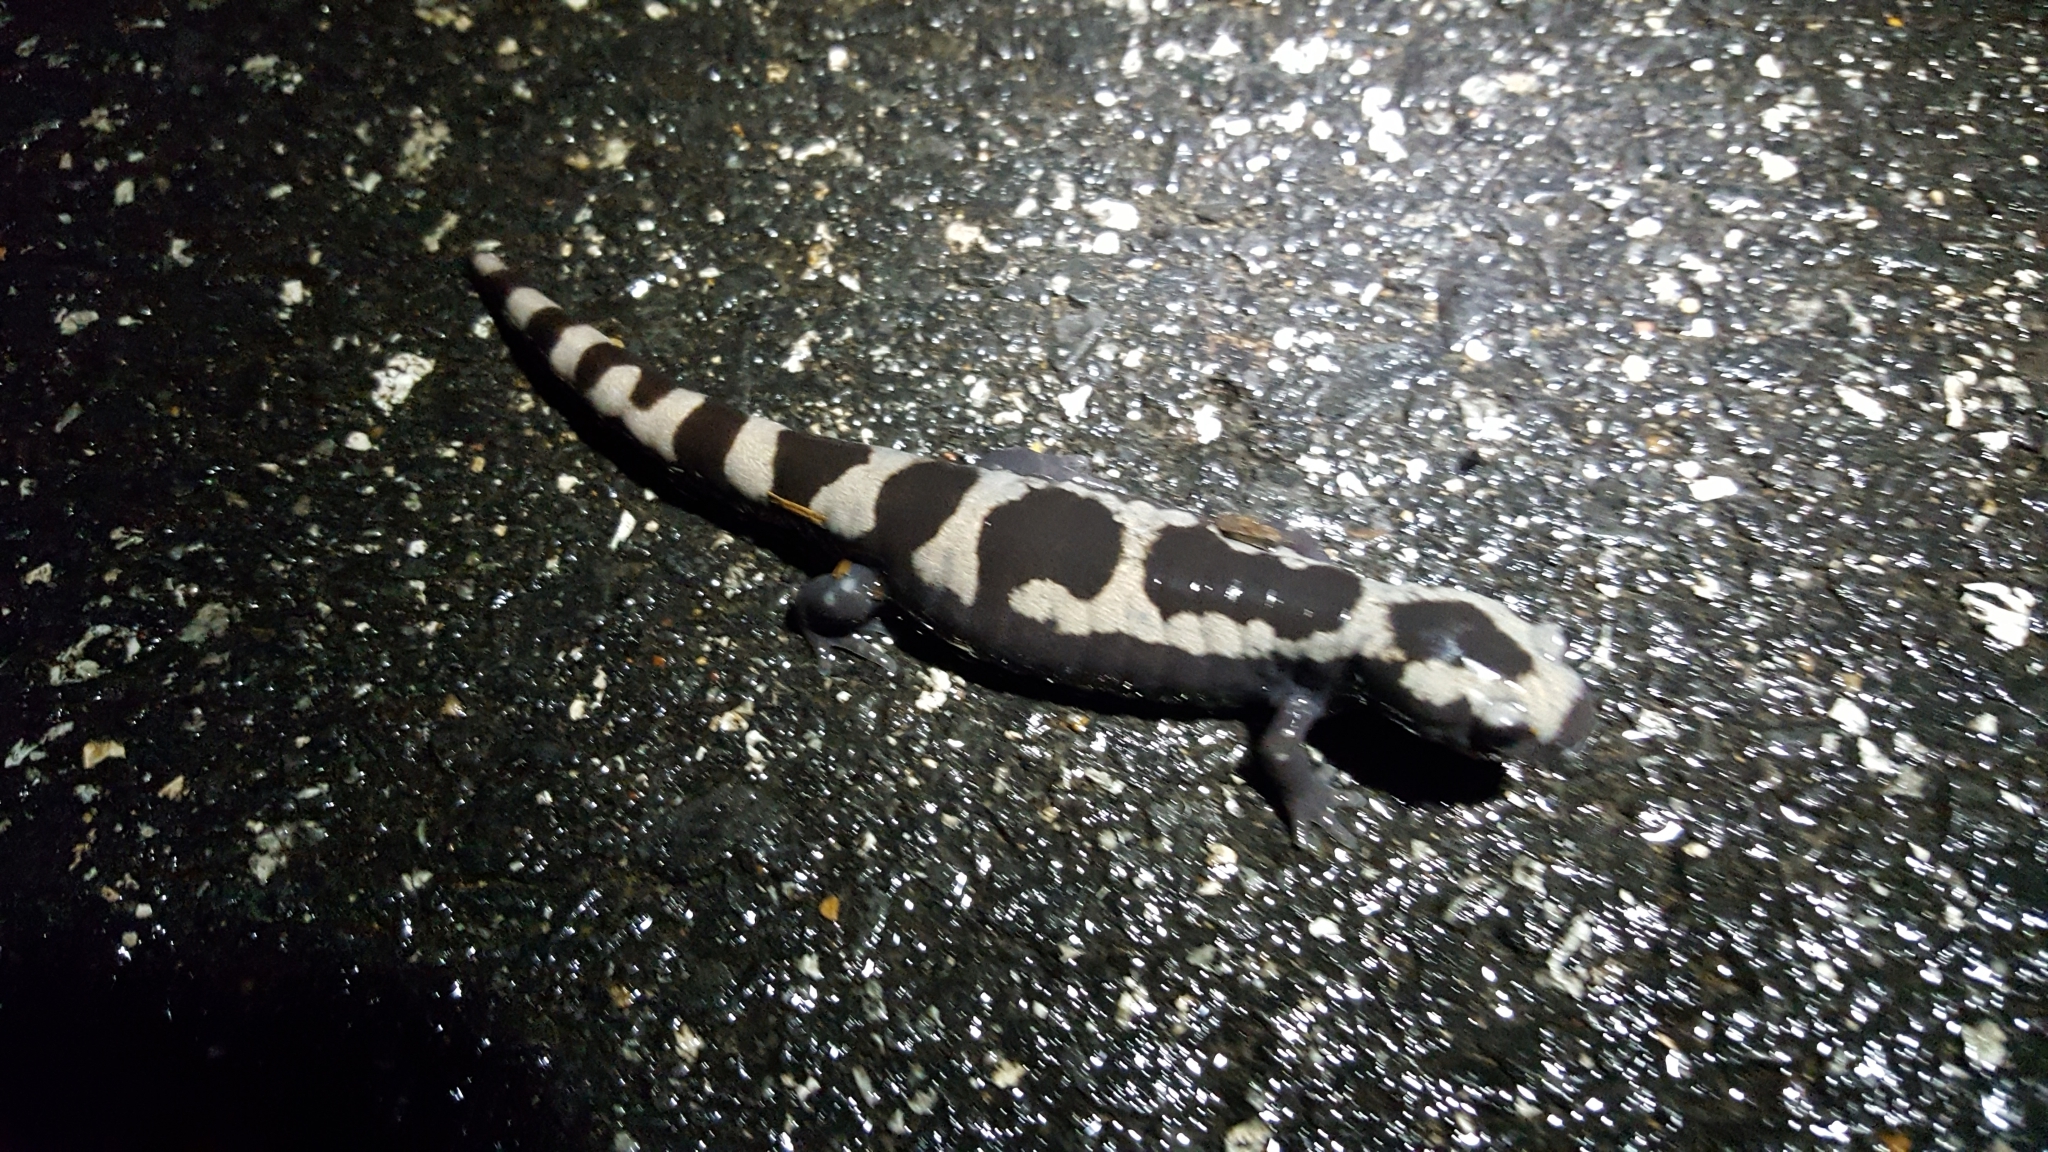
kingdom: Animalia
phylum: Chordata
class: Amphibia
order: Caudata
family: Ambystomatidae
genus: Ambystoma
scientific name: Ambystoma opacum
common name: Marbled salamander
